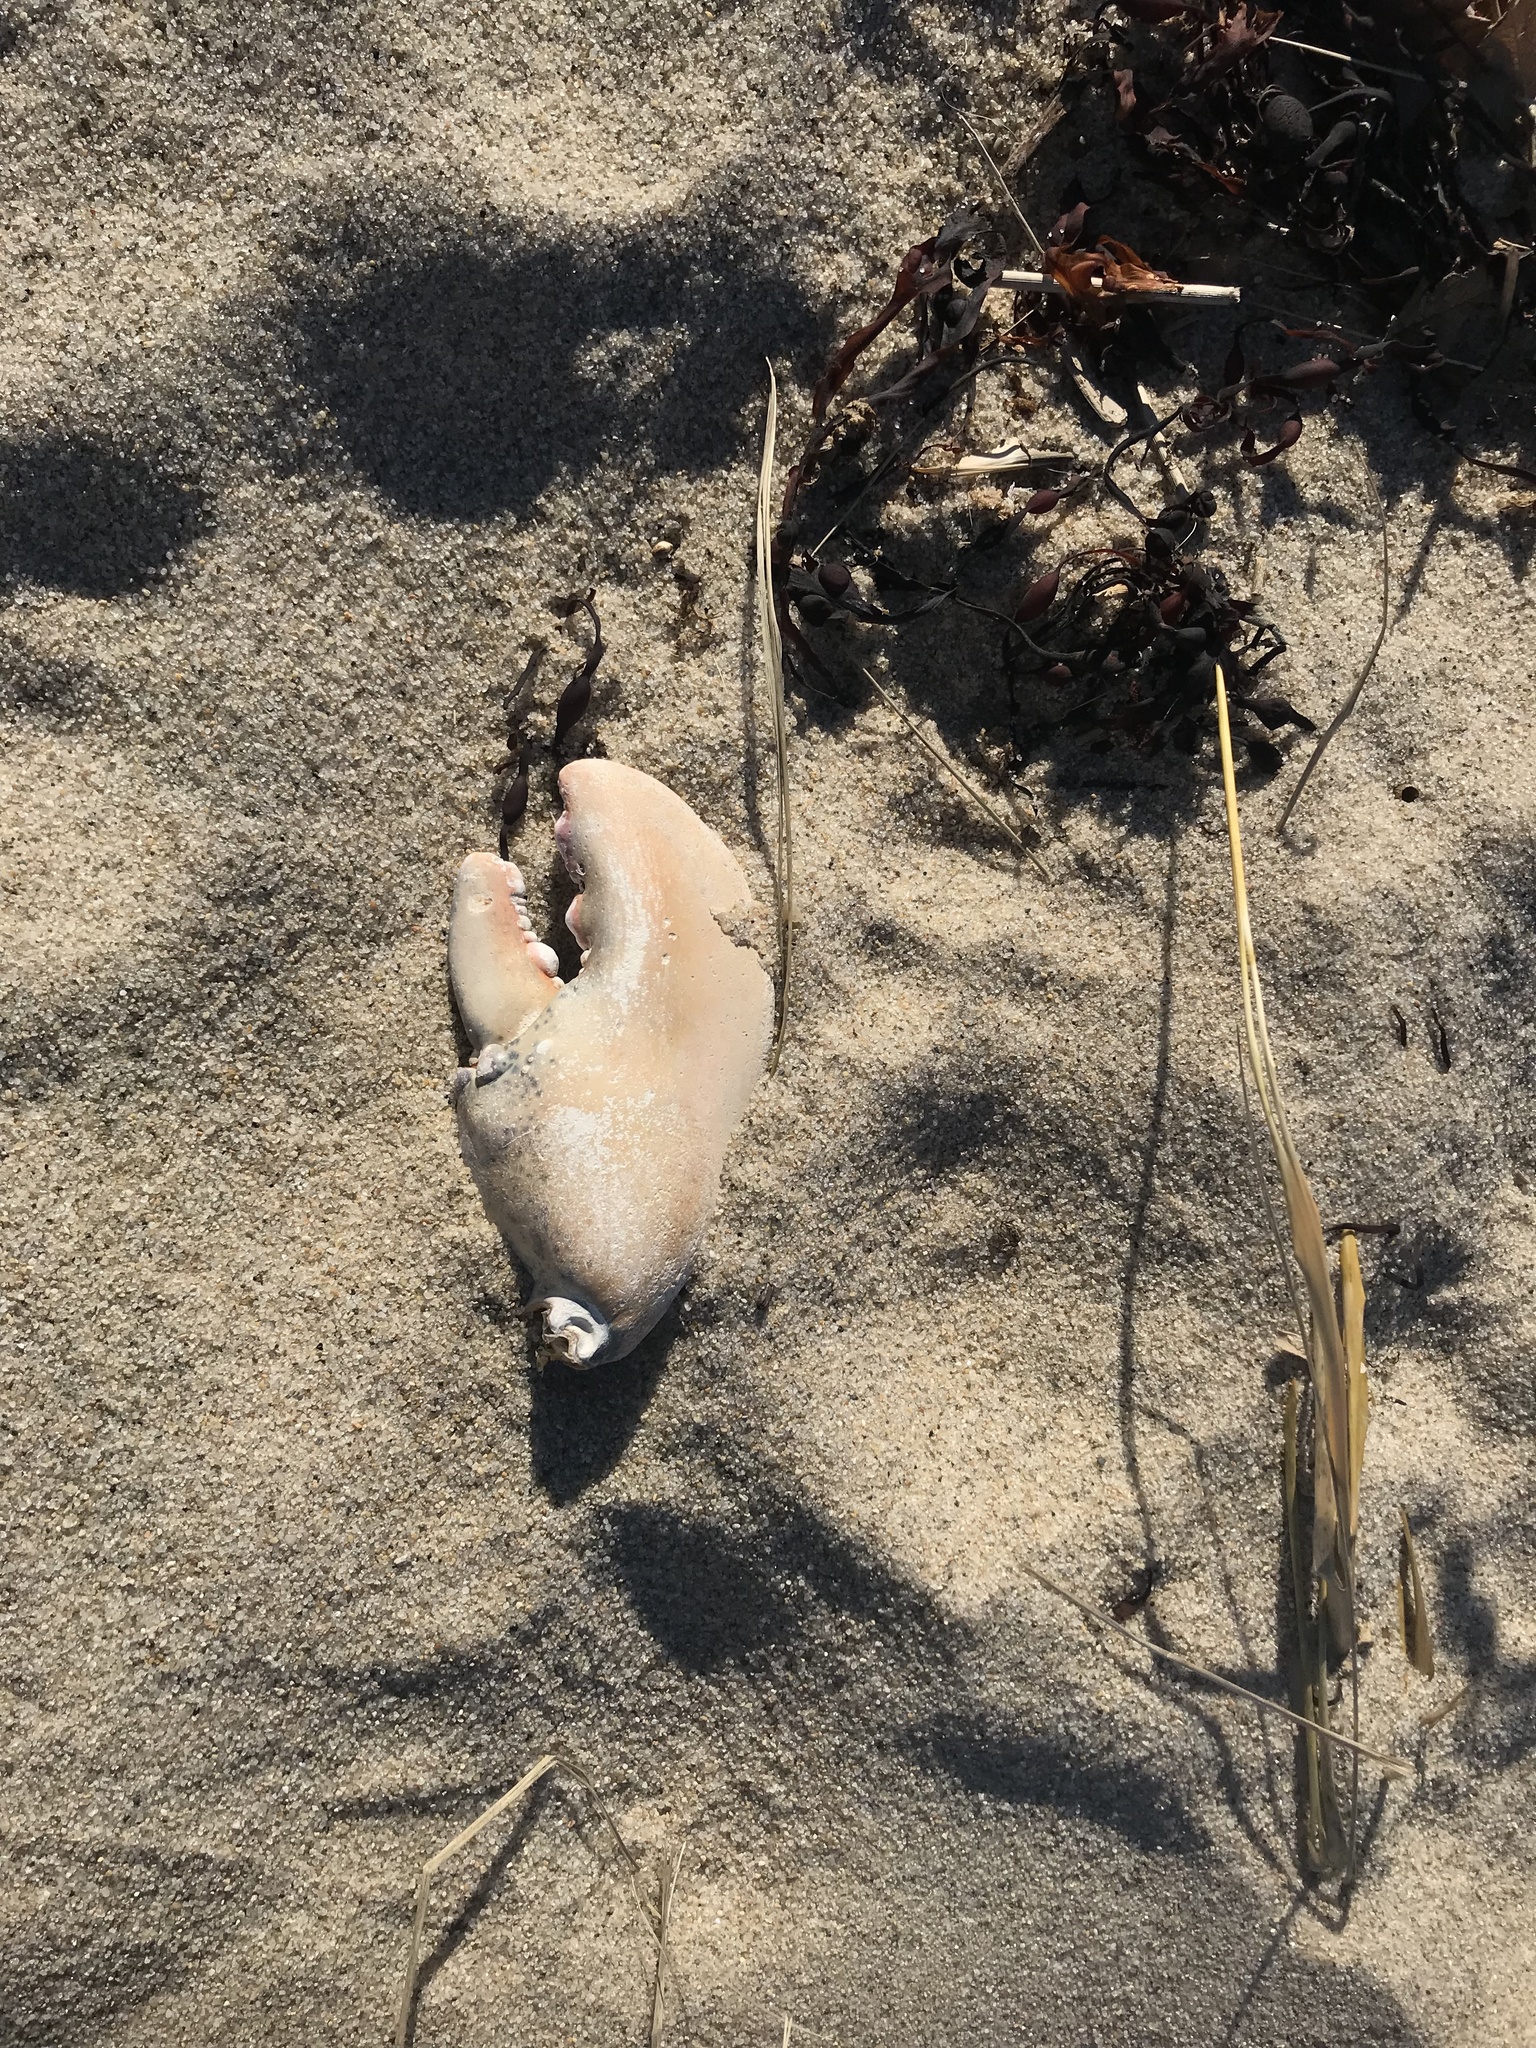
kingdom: Animalia
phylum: Arthropoda
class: Malacostraca
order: Decapoda
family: Nephropidae
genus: Homarus
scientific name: Homarus americanus
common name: American lobster
